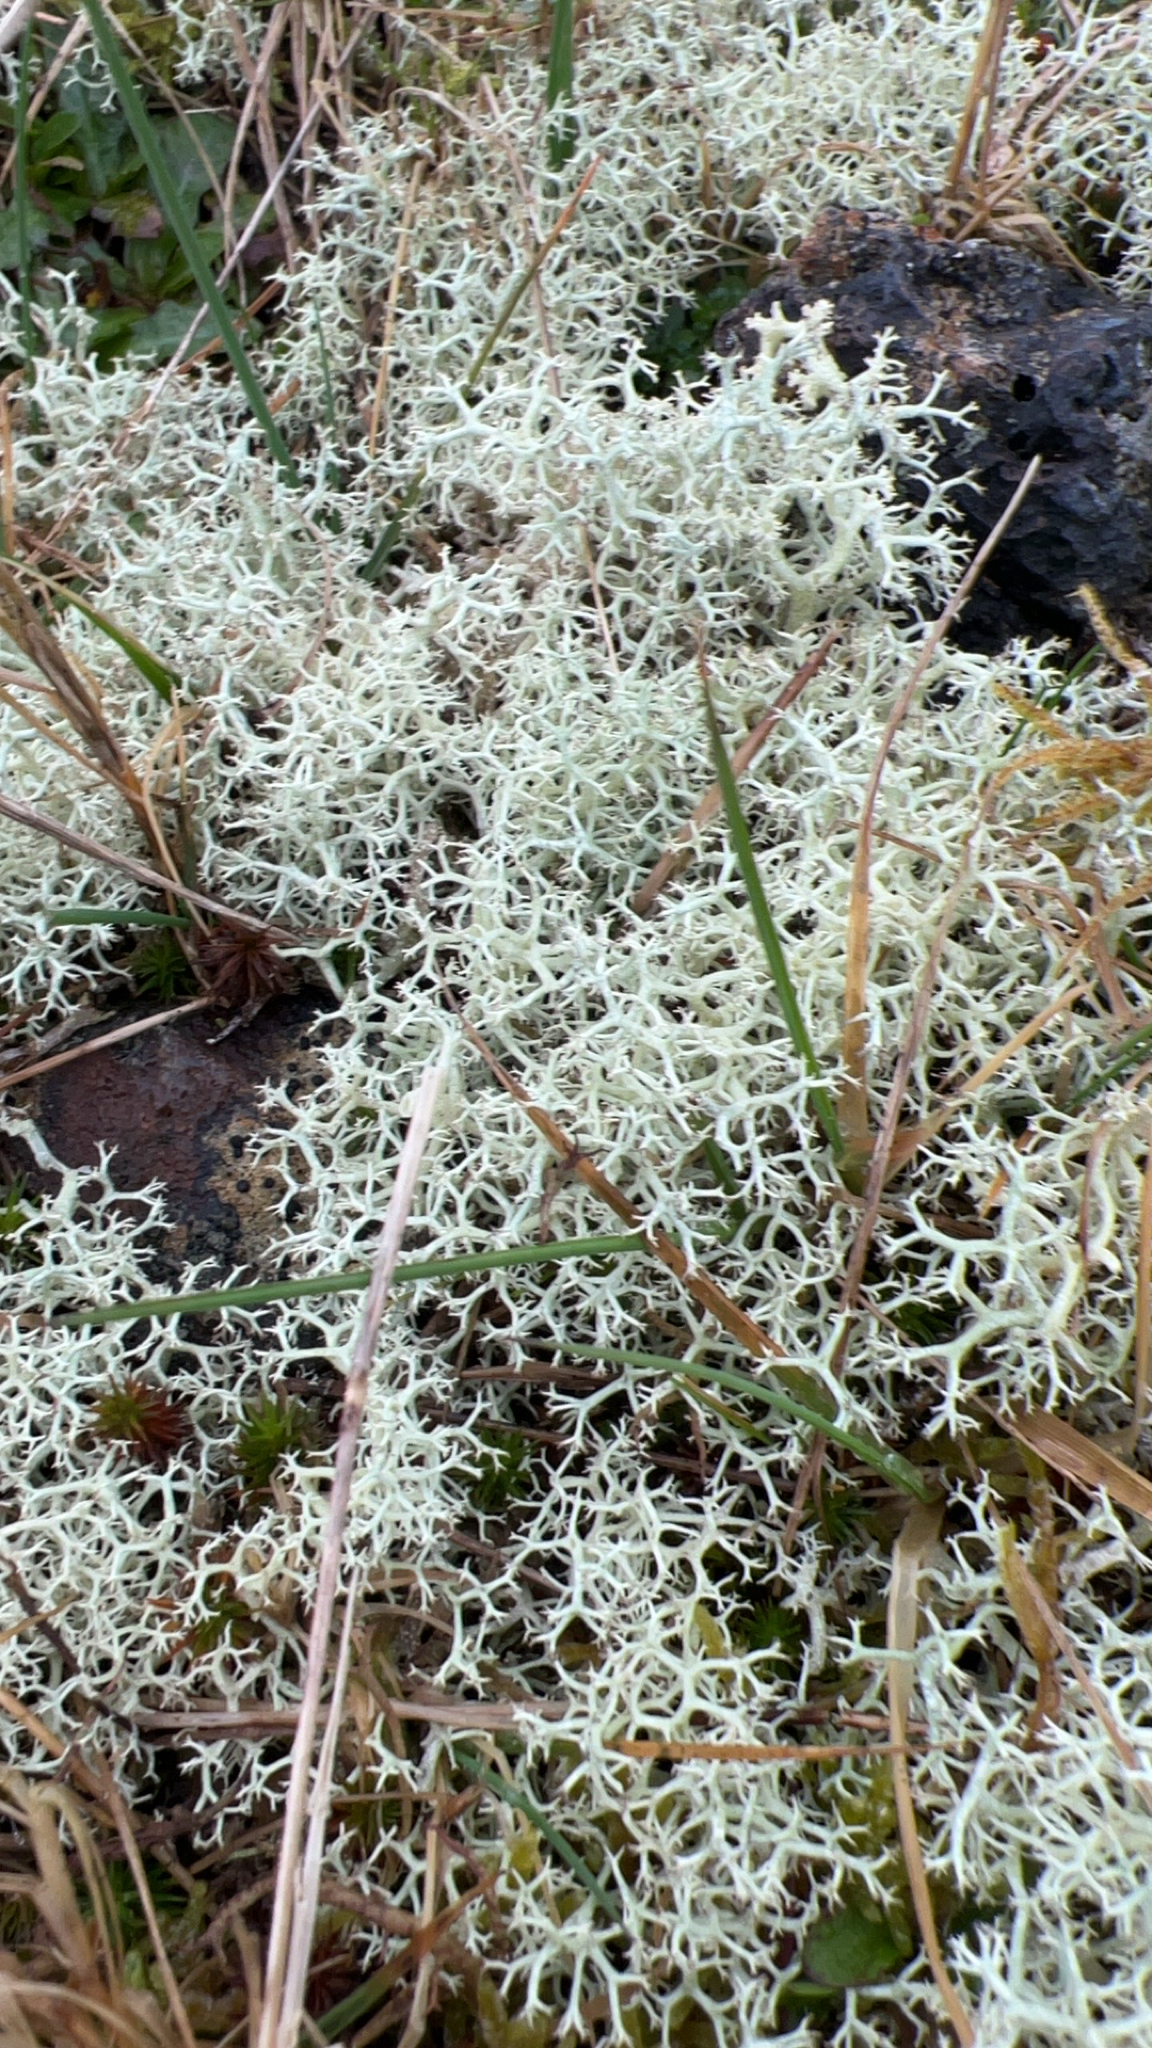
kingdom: Fungi
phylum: Ascomycota
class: Lecanoromycetes
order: Lecanorales
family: Cladoniaceae
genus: Cladonia
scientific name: Cladonia portentosa
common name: Reindeer lichen
